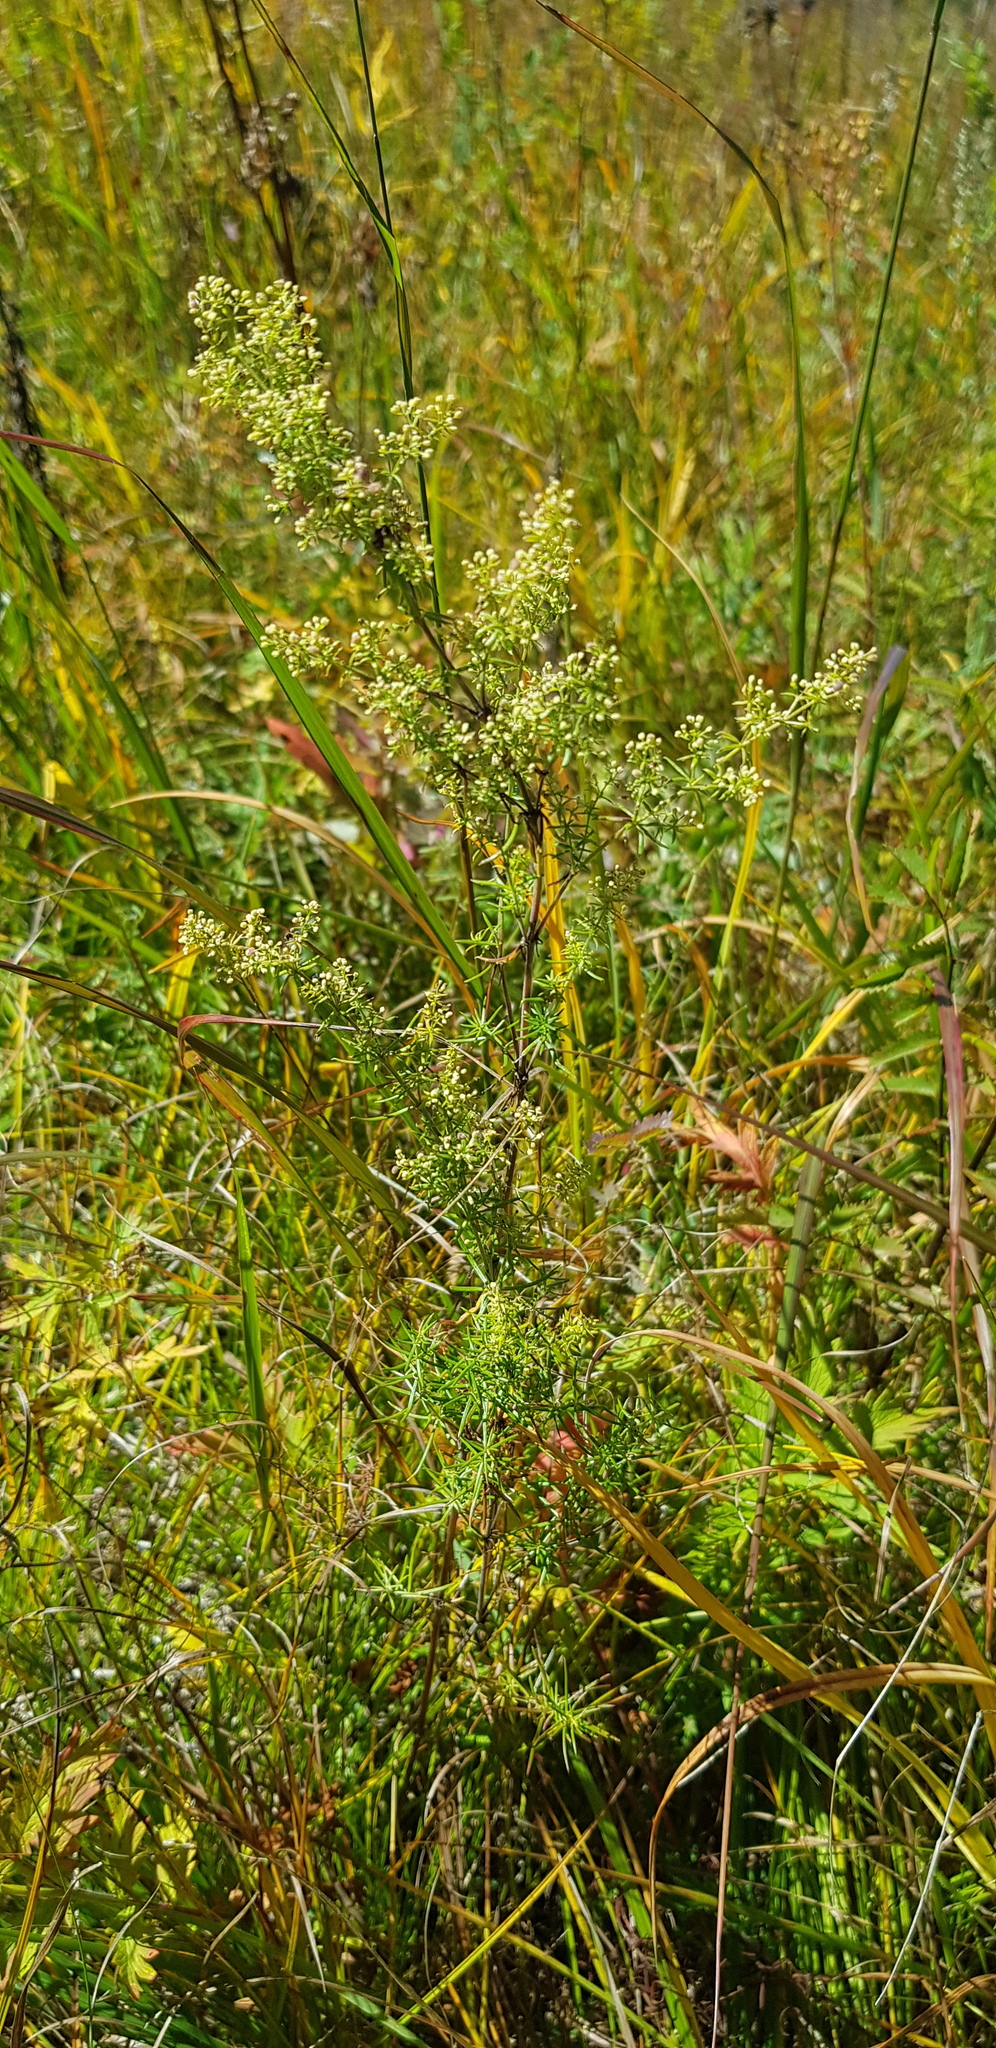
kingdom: Plantae
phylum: Tracheophyta
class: Magnoliopsida
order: Gentianales
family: Rubiaceae
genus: Galium
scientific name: Galium verum
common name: Lady's bedstraw
